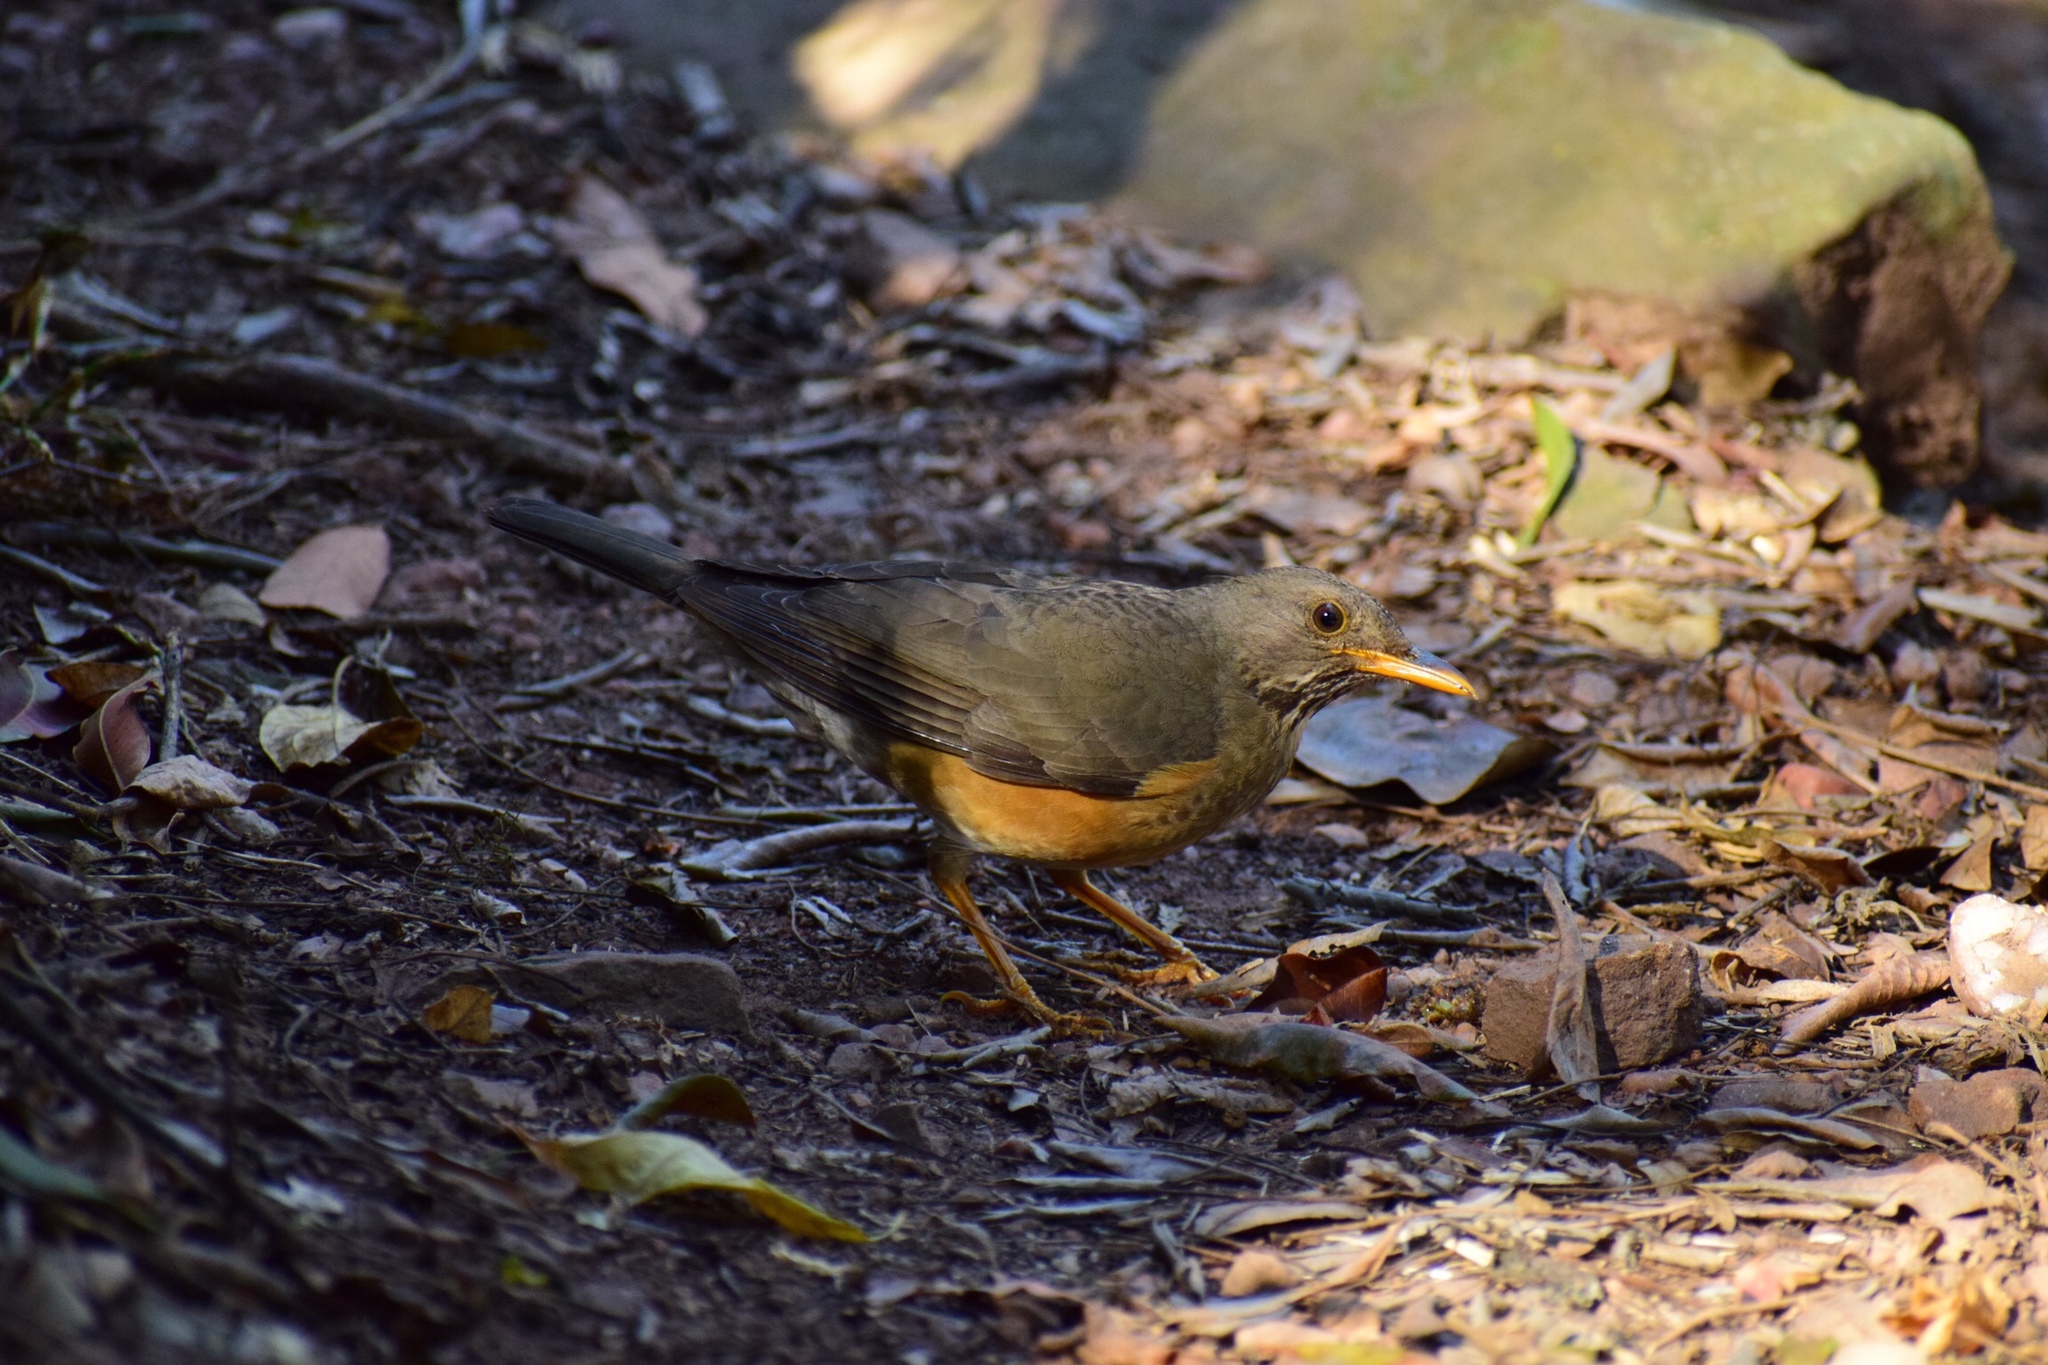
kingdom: Animalia
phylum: Chordata
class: Aves
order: Passeriformes
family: Turdidae
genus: Turdus
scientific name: Turdus olivaceus
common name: Olive thrush
